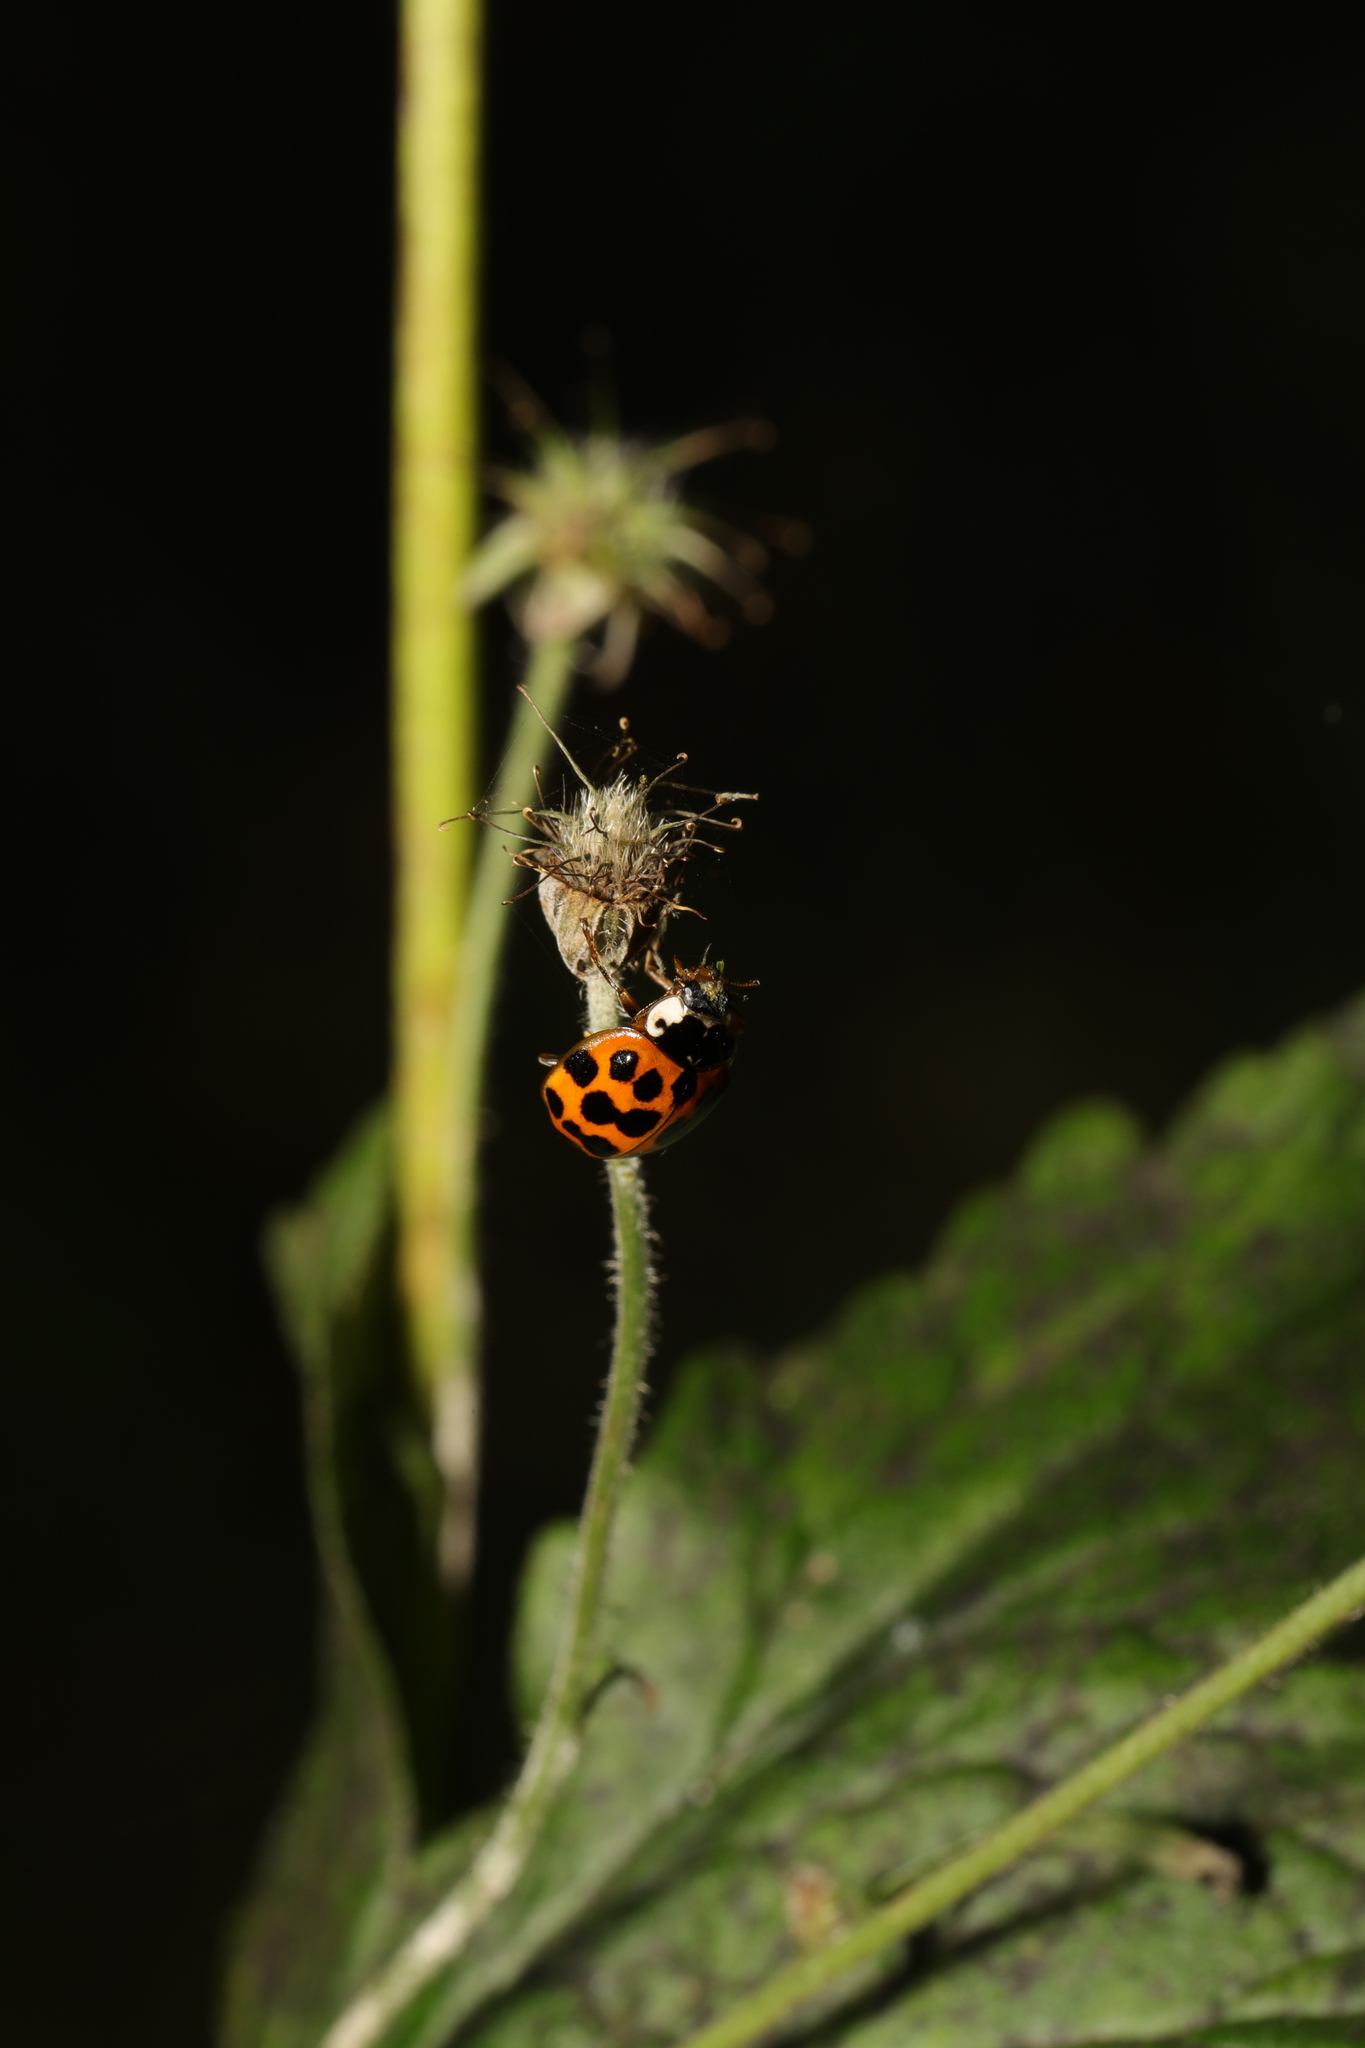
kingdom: Animalia
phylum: Arthropoda
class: Insecta
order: Coleoptera
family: Coccinellidae
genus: Harmonia
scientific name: Harmonia axyridis
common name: Harlequin ladybird
